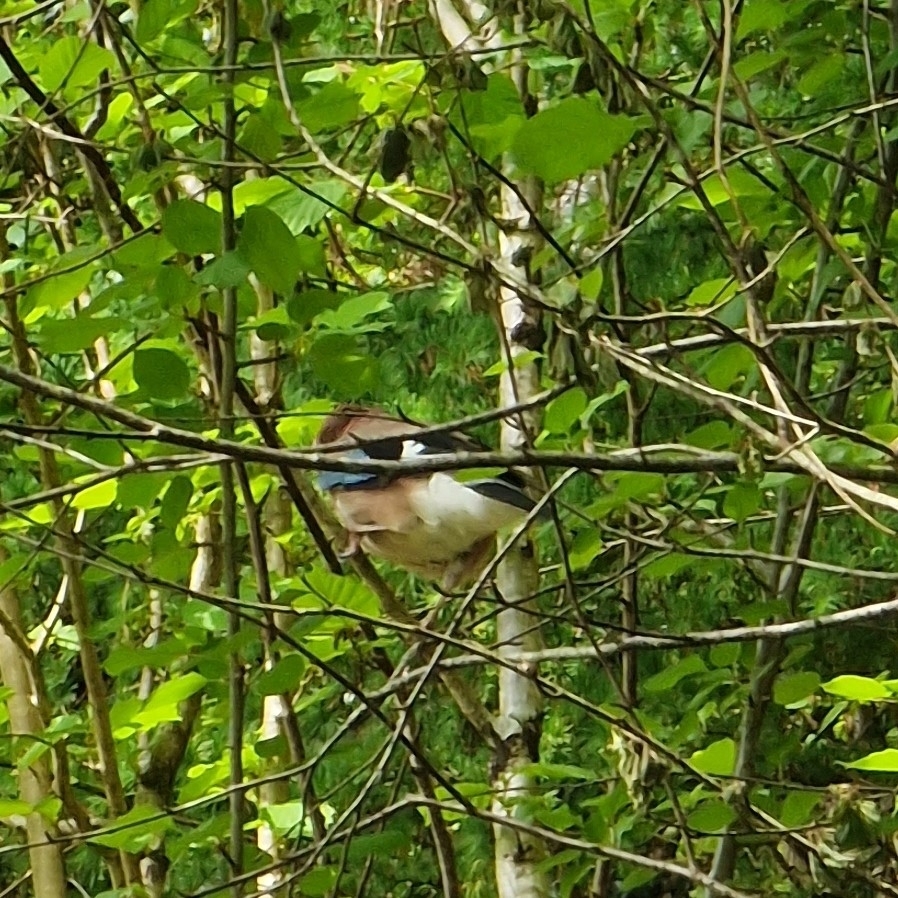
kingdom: Animalia
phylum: Chordata
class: Aves
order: Passeriformes
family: Corvidae
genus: Garrulus
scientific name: Garrulus glandarius
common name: Eurasian jay
